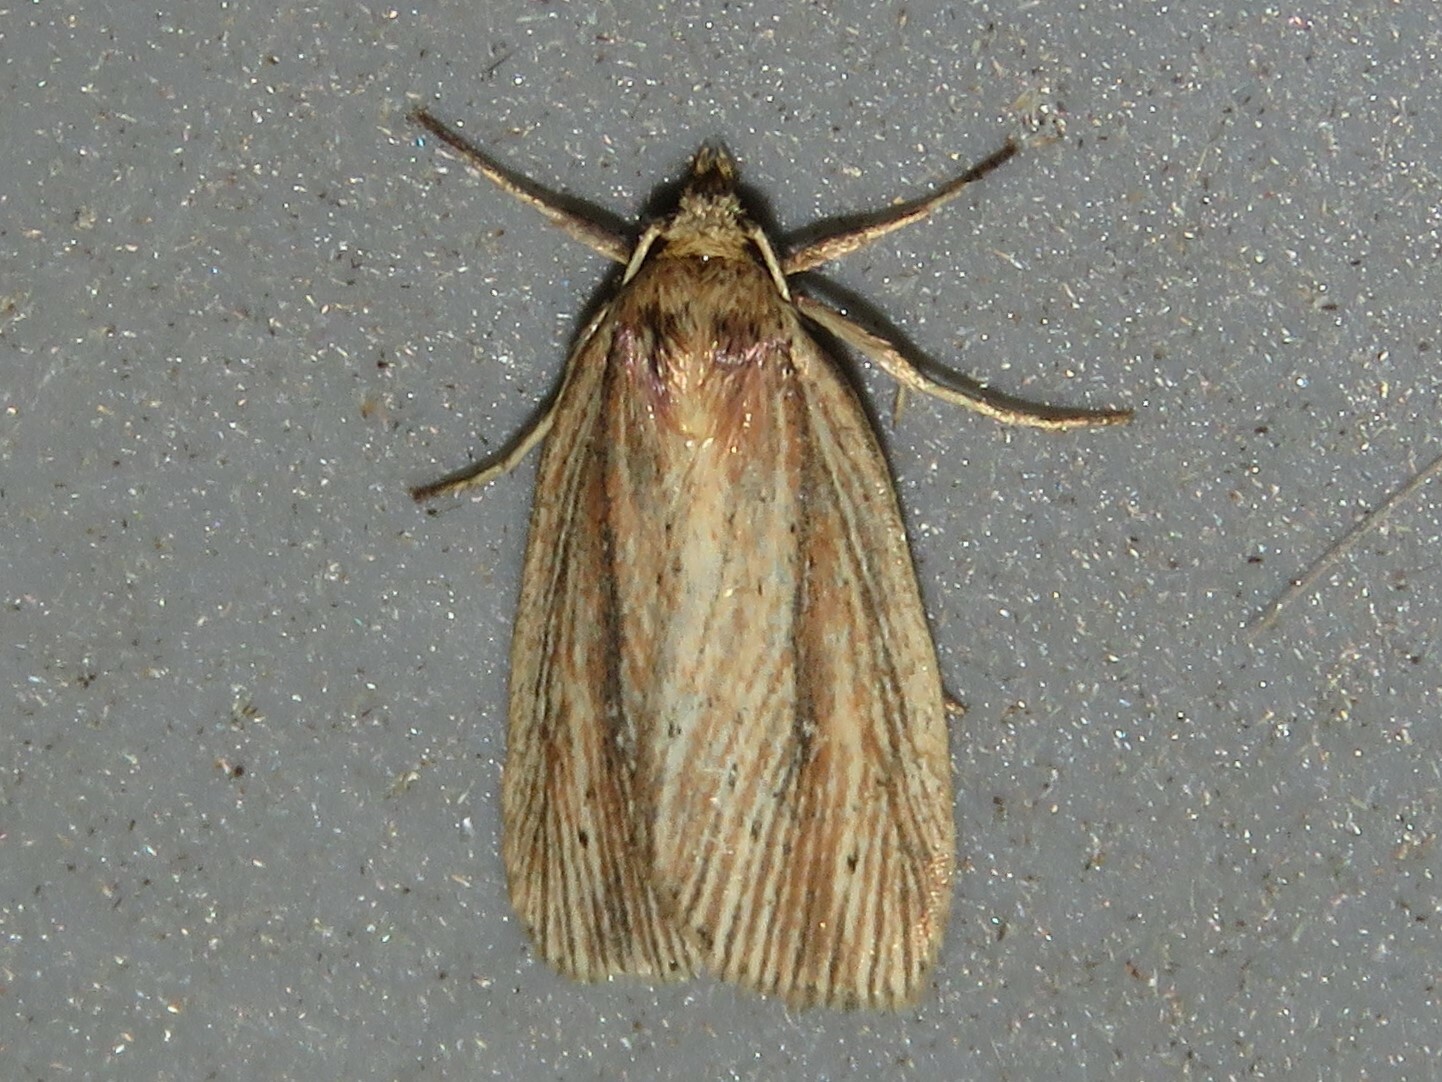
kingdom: Animalia
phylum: Arthropoda
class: Insecta
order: Lepidoptera
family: Noctuidae
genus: Amolita
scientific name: Amolita fessa
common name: Feeble grass moth
